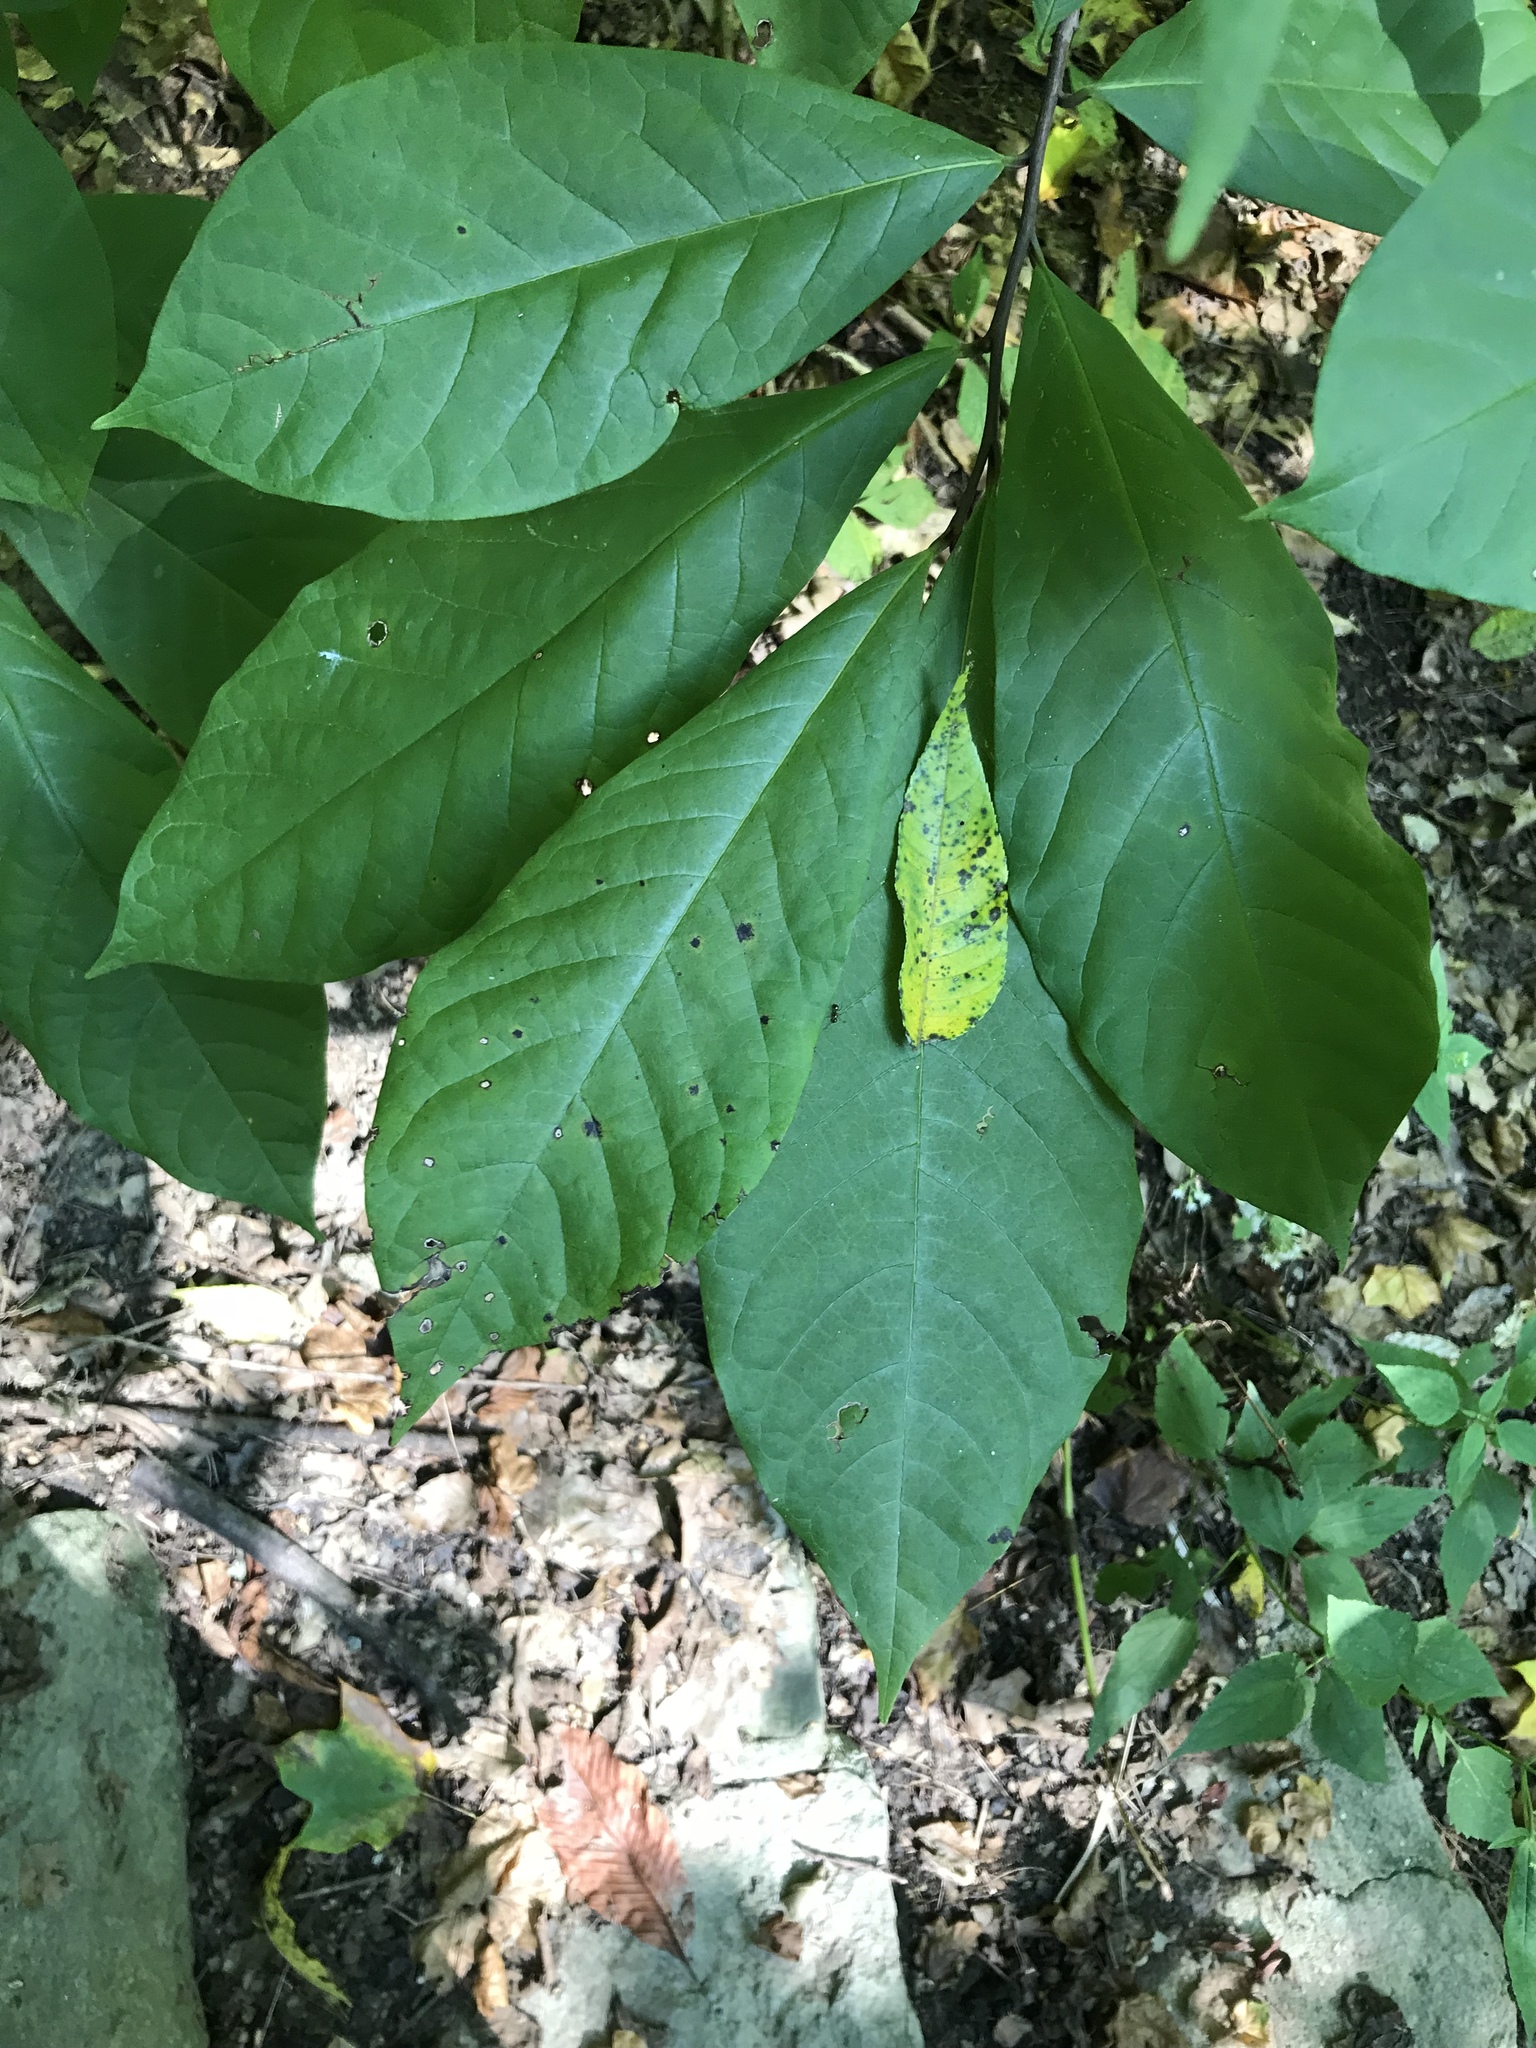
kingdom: Plantae
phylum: Tracheophyta
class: Magnoliopsida
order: Magnoliales
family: Annonaceae
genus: Asimina
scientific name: Asimina triloba
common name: Dog-banana
